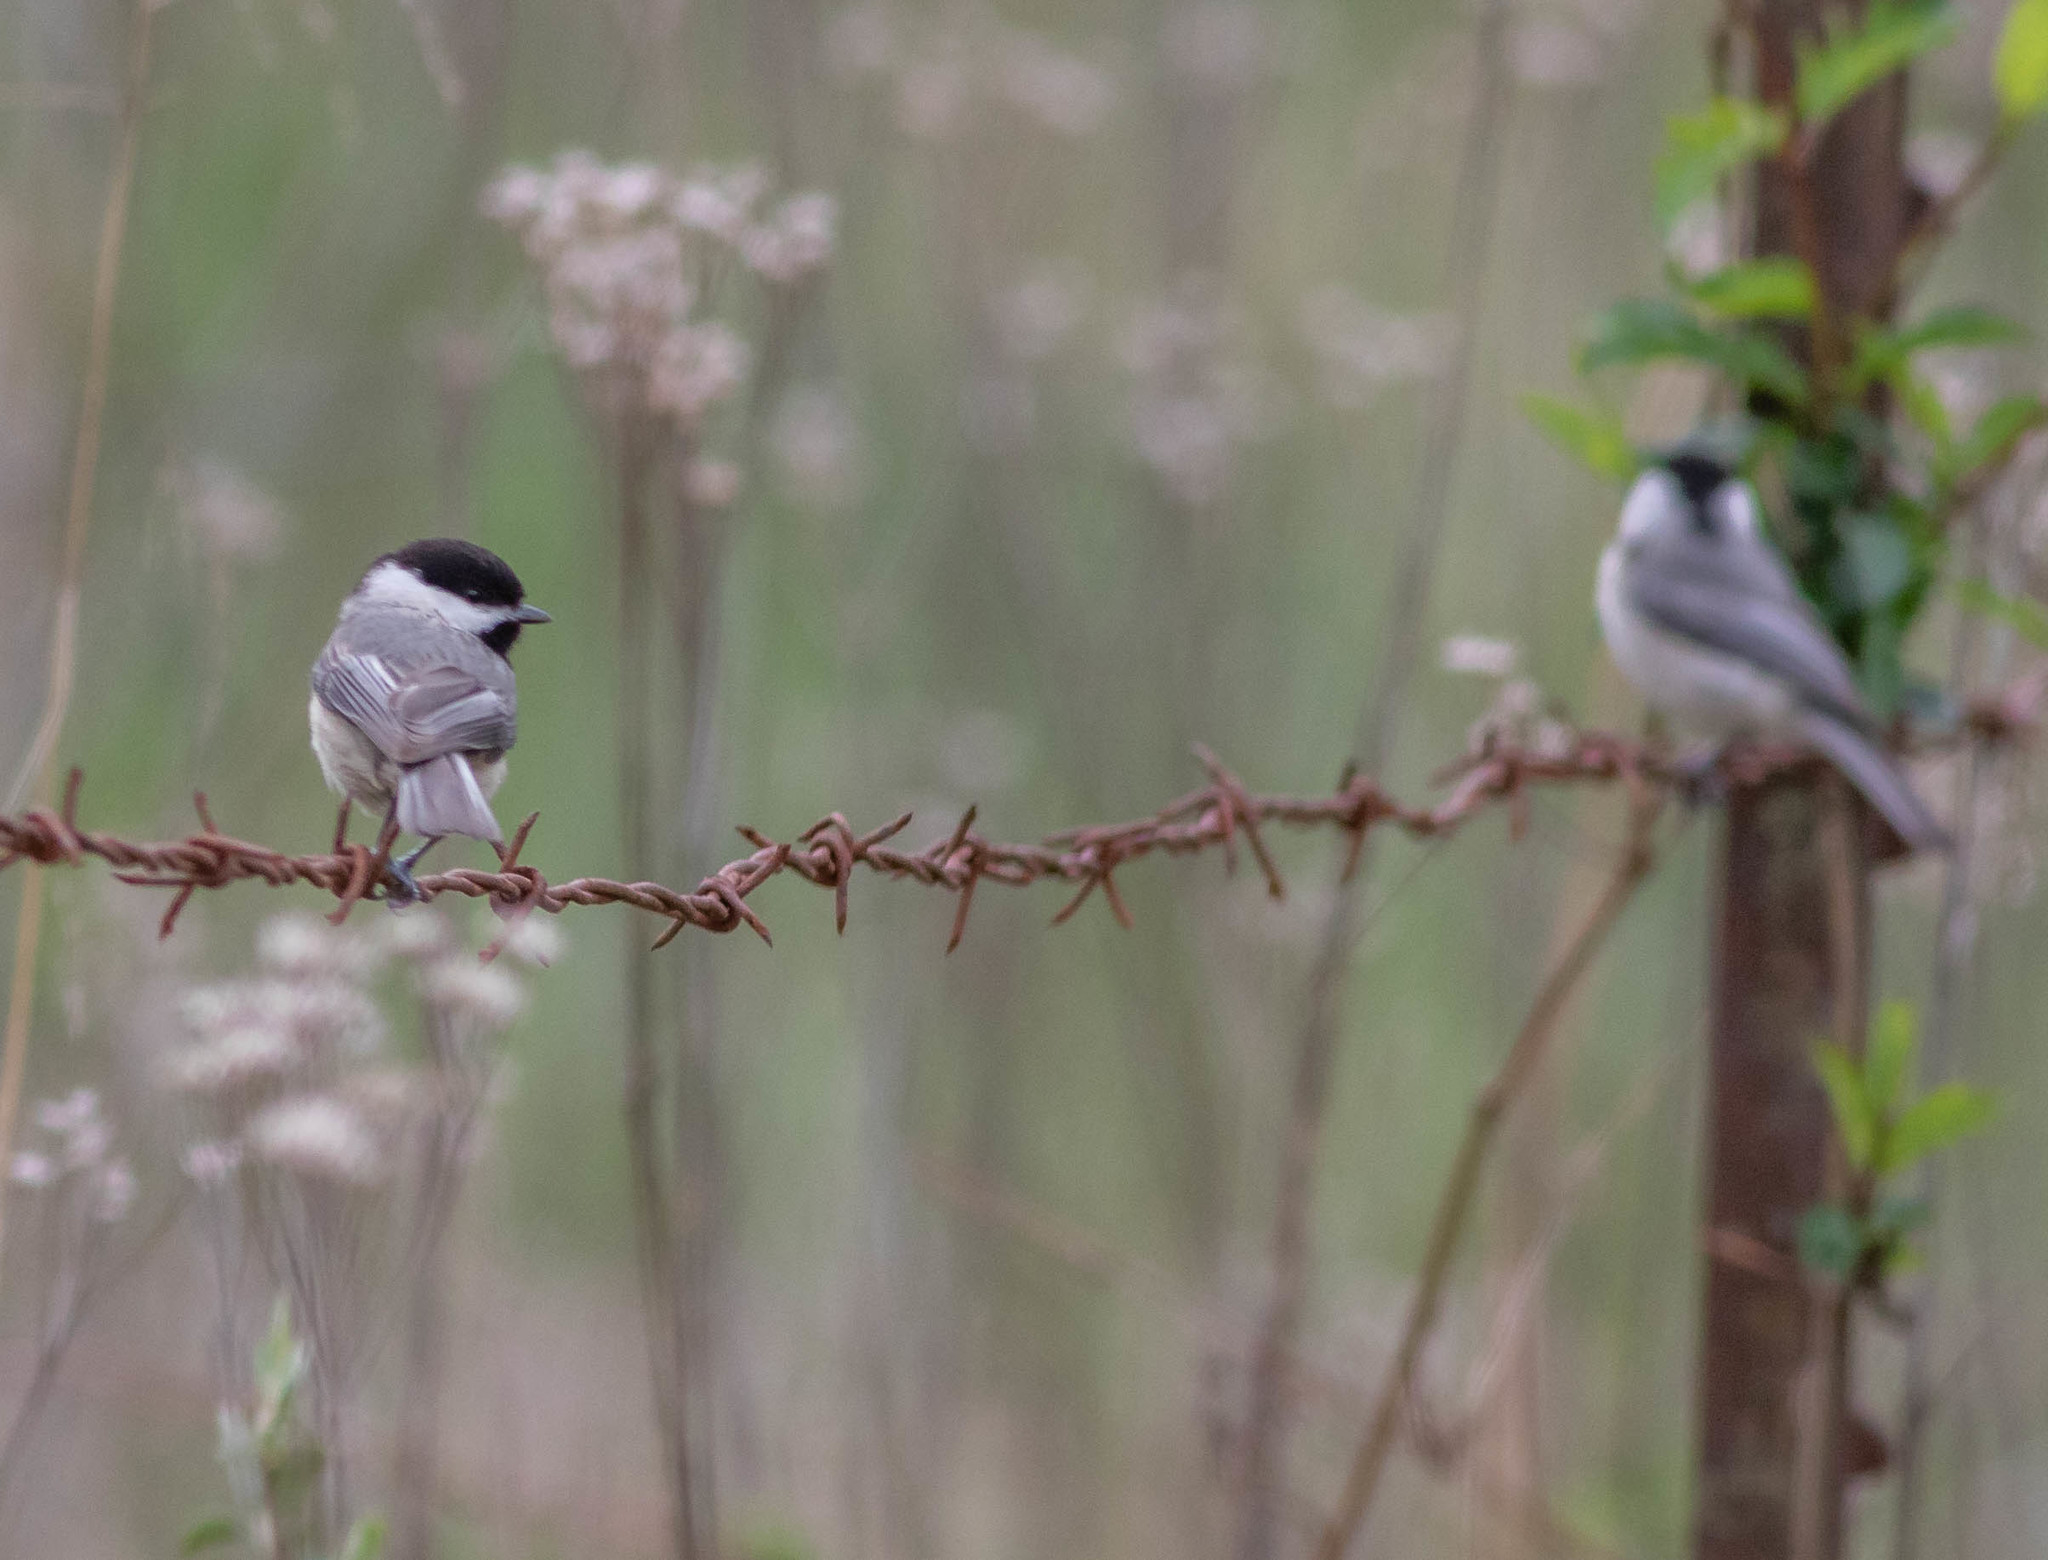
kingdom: Animalia
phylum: Chordata
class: Aves
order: Passeriformes
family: Paridae
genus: Poecile
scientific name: Poecile carolinensis
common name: Carolina chickadee
